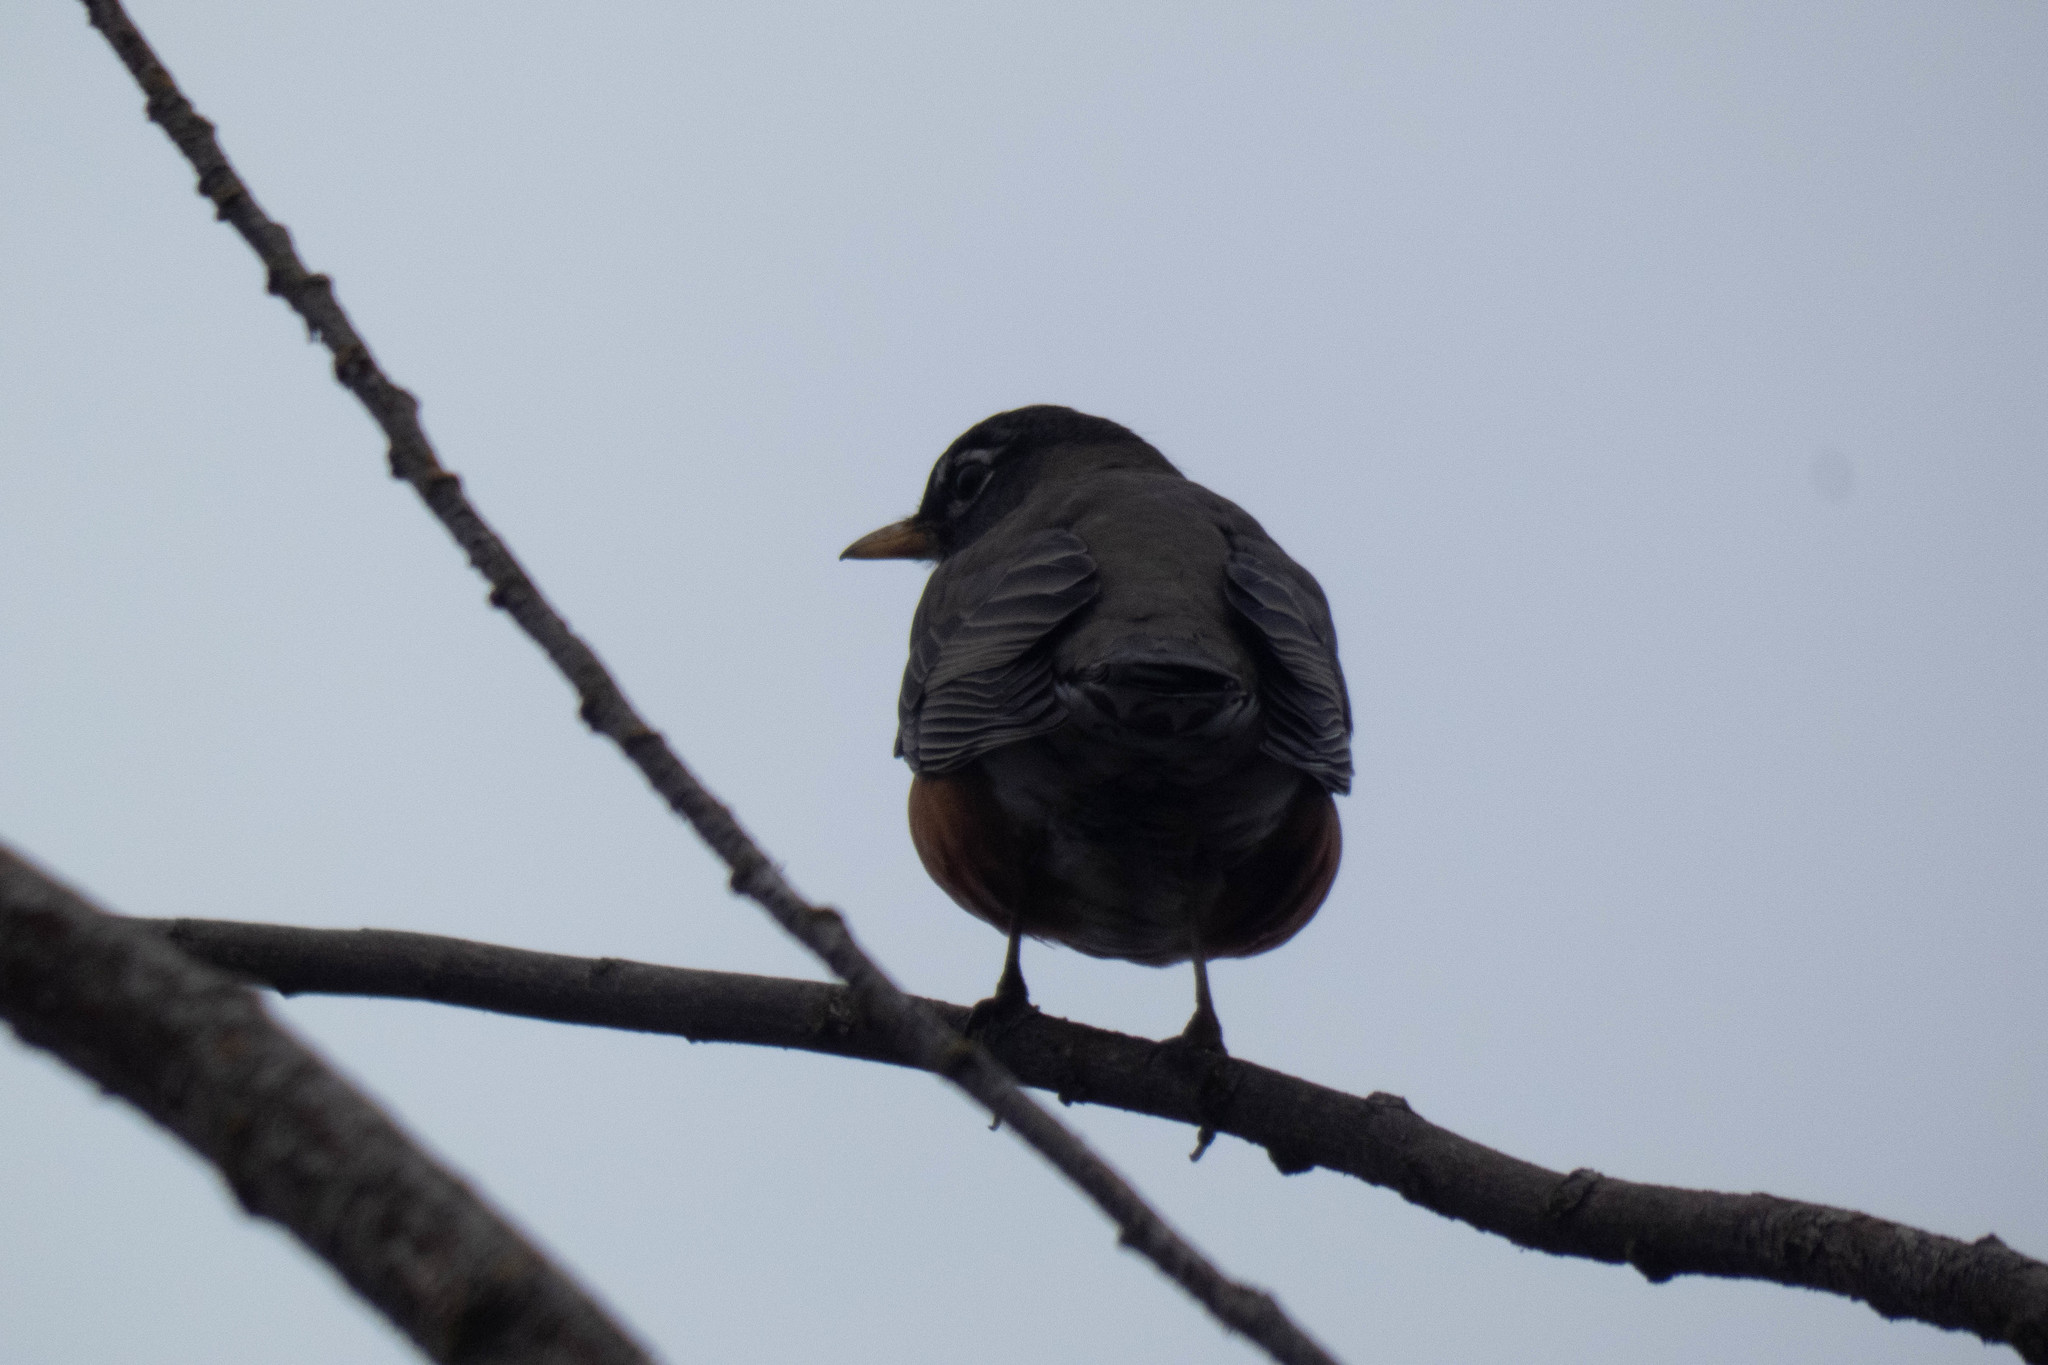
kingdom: Animalia
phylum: Chordata
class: Aves
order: Passeriformes
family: Turdidae
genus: Turdus
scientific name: Turdus migratorius
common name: American robin
